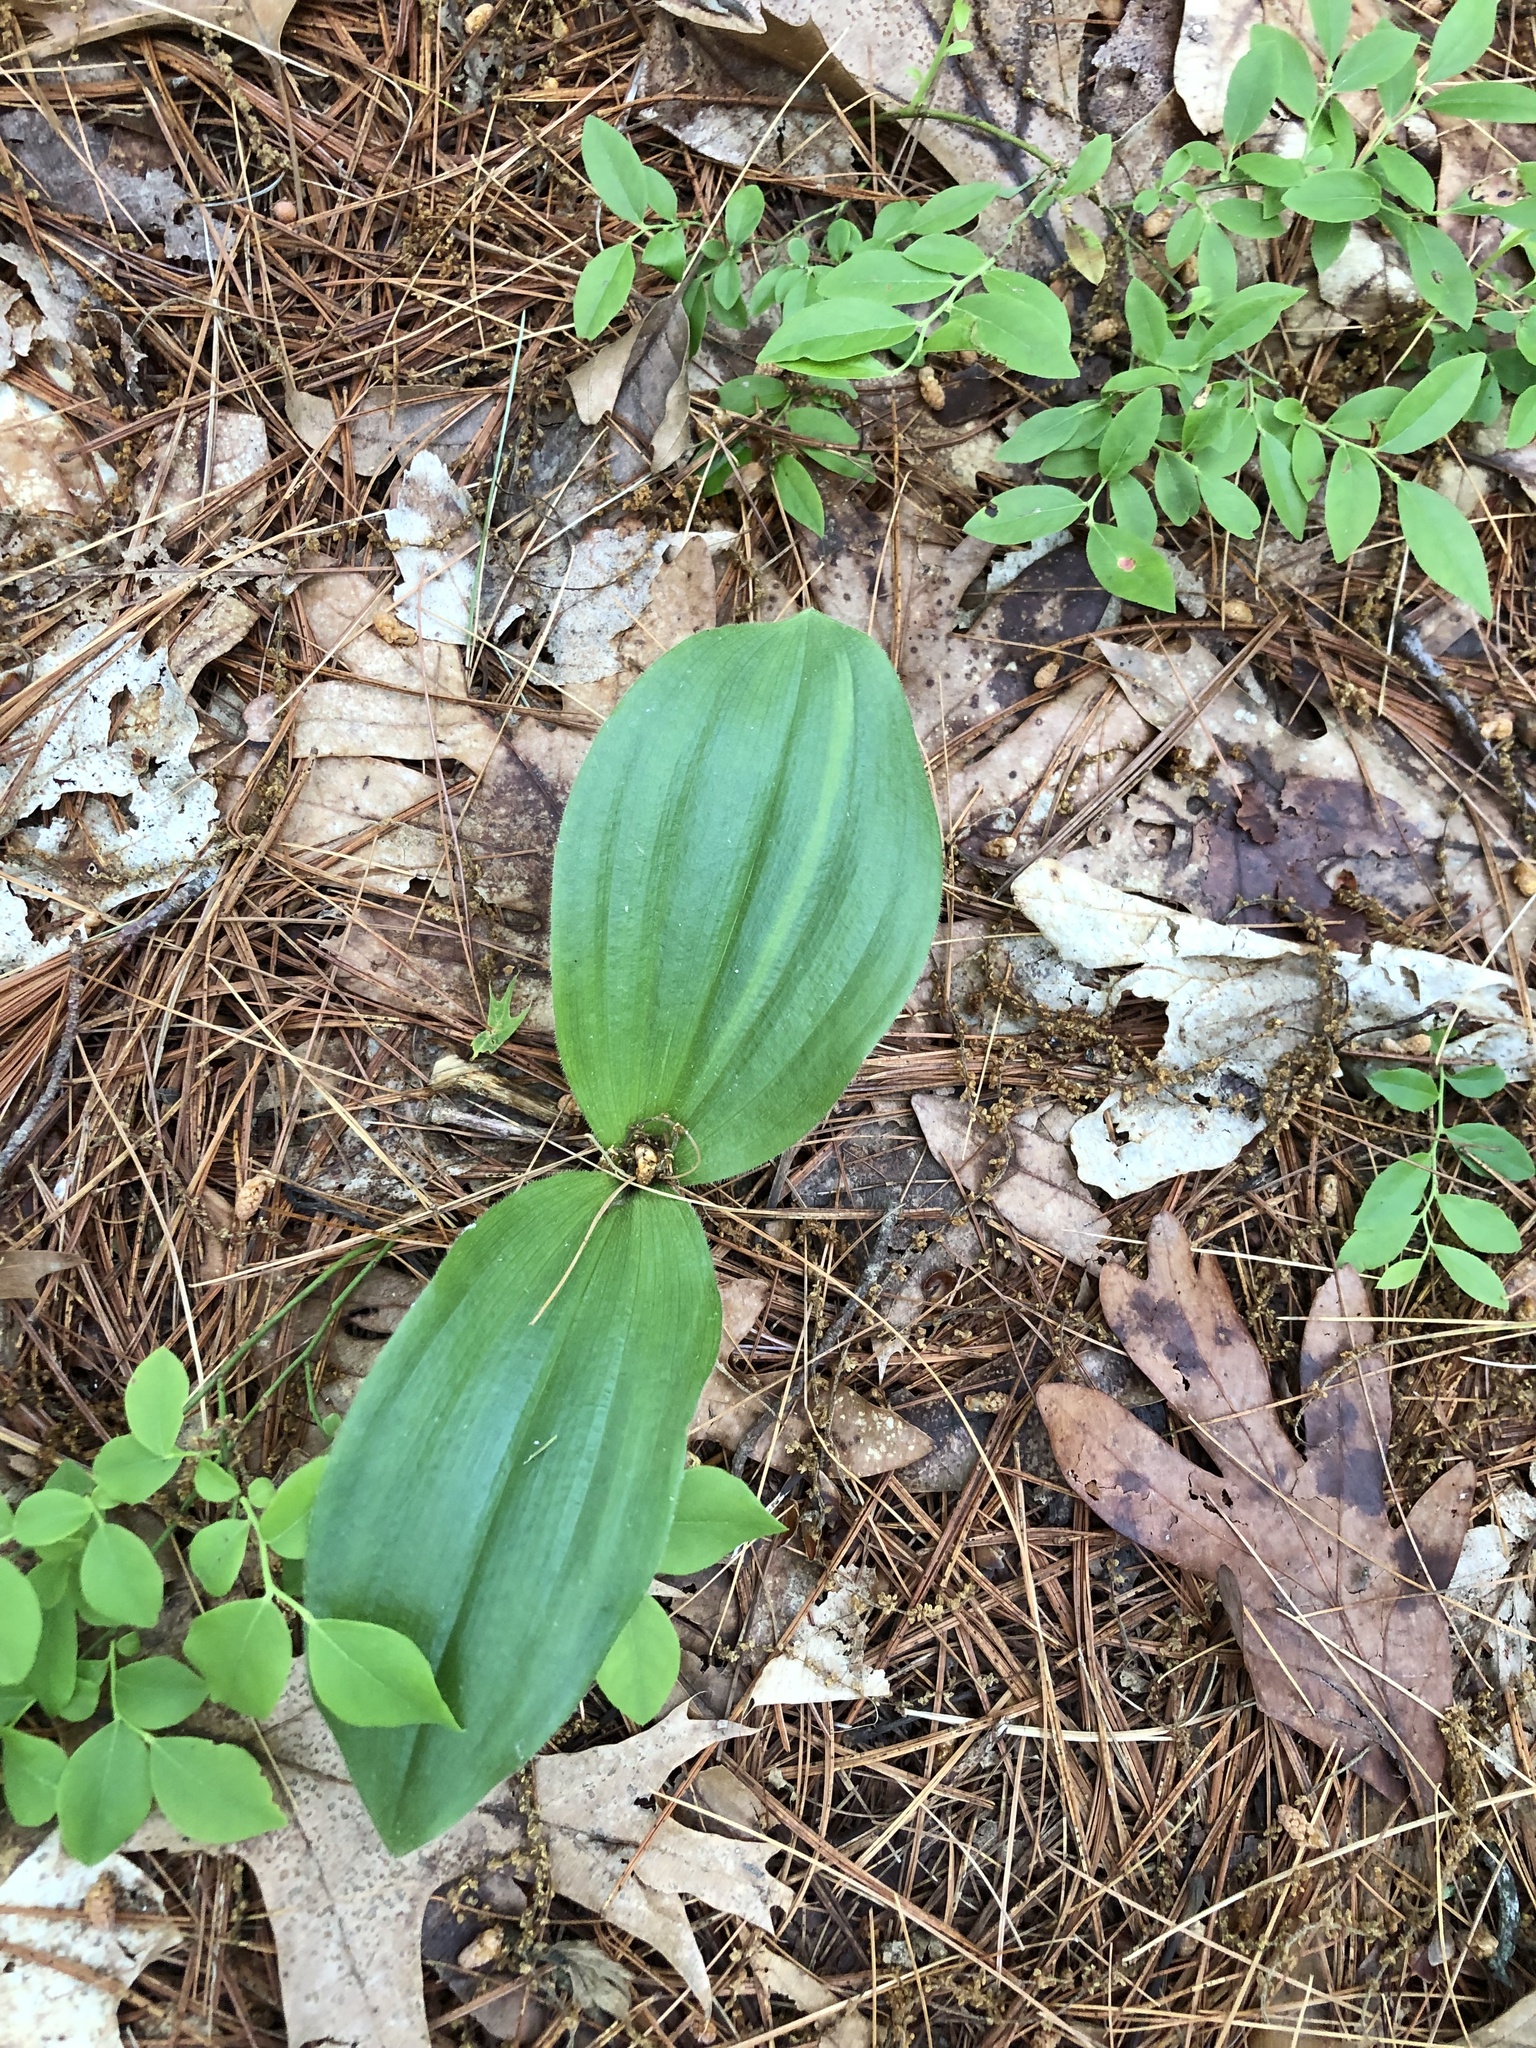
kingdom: Plantae
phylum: Tracheophyta
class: Liliopsida
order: Asparagales
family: Orchidaceae
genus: Cypripedium
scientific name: Cypripedium acaule
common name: Pink lady's-slipper
